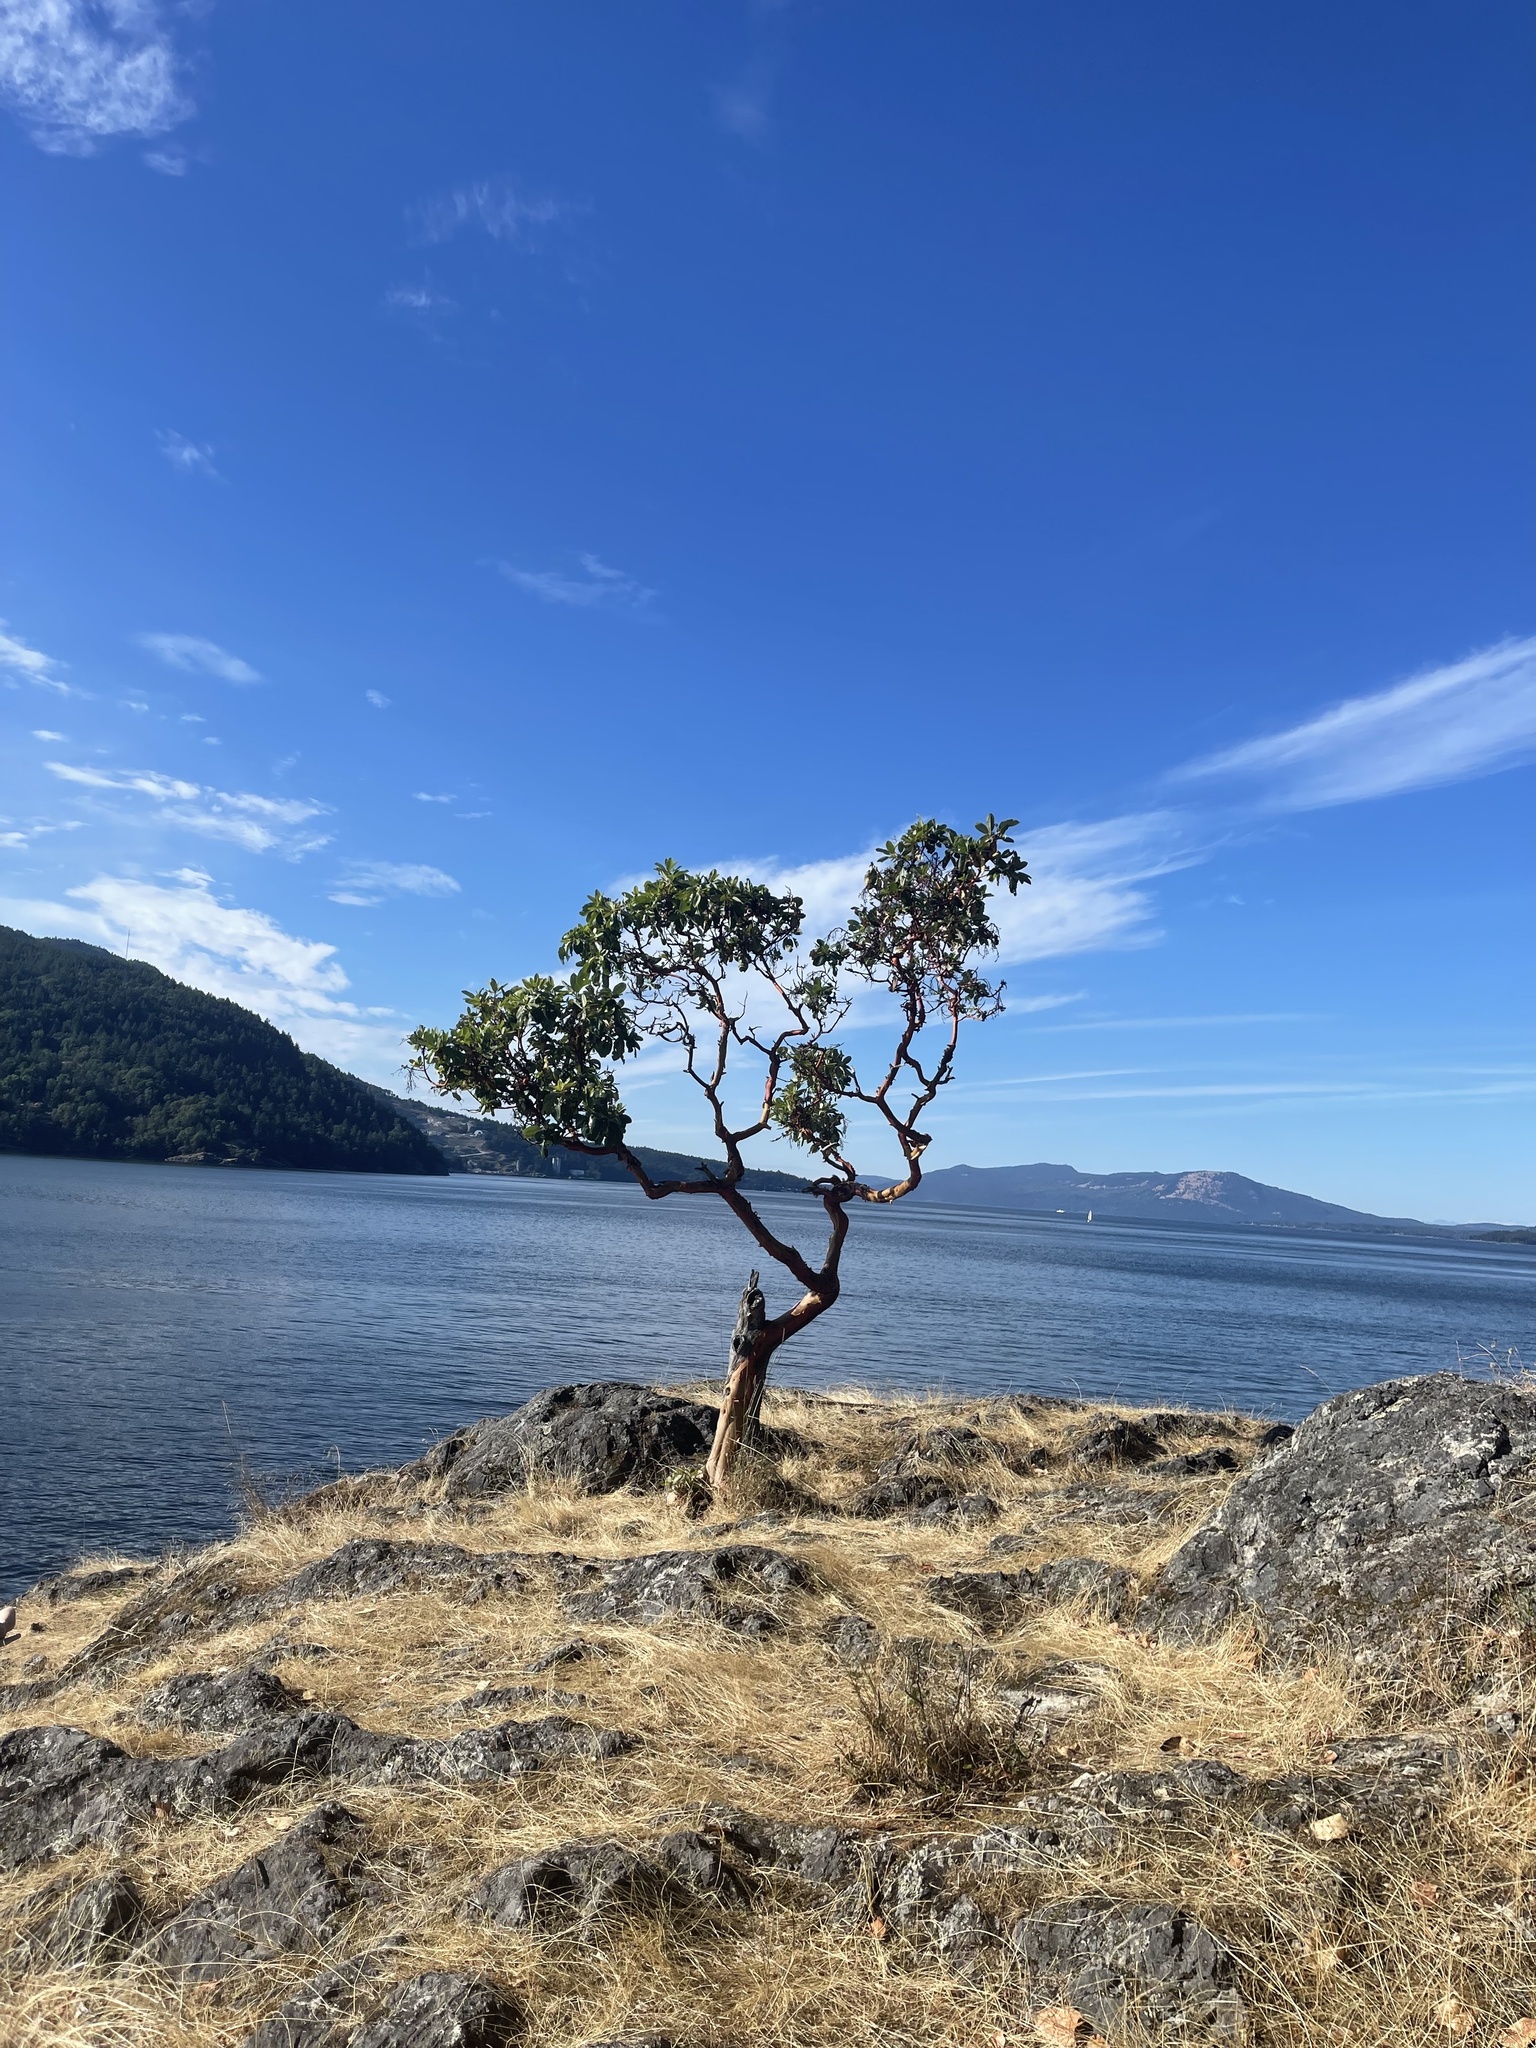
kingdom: Plantae
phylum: Tracheophyta
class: Magnoliopsida
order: Ericales
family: Ericaceae
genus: Arbutus
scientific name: Arbutus menziesii
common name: Pacific madrone
